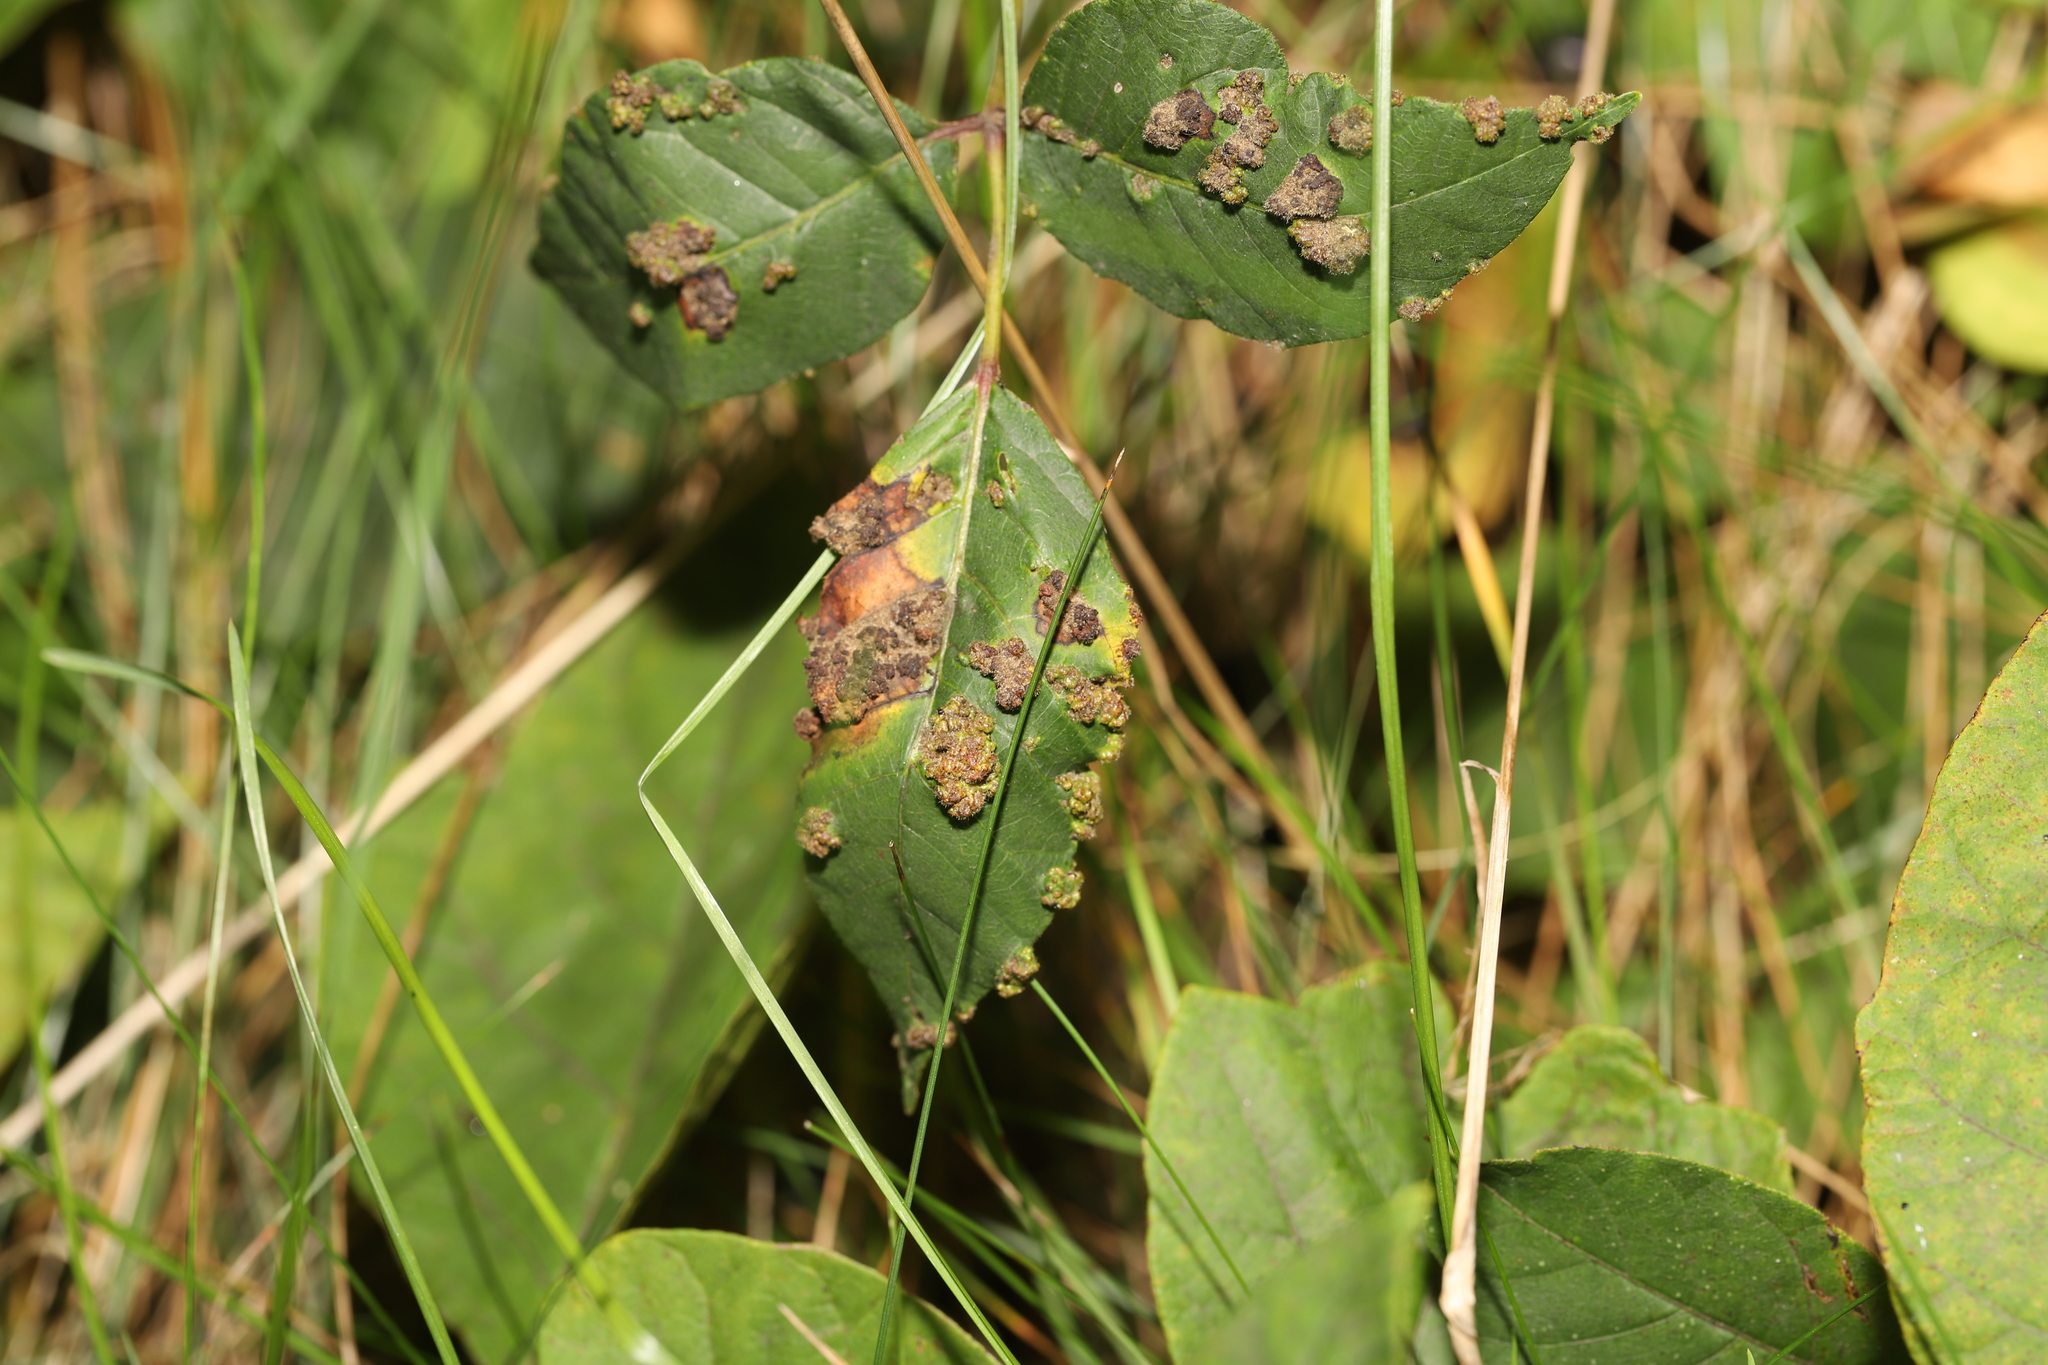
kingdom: Animalia
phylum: Arthropoda
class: Arachnida
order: Trombidiformes
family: Eriophyidae
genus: Aculops
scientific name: Aculops
